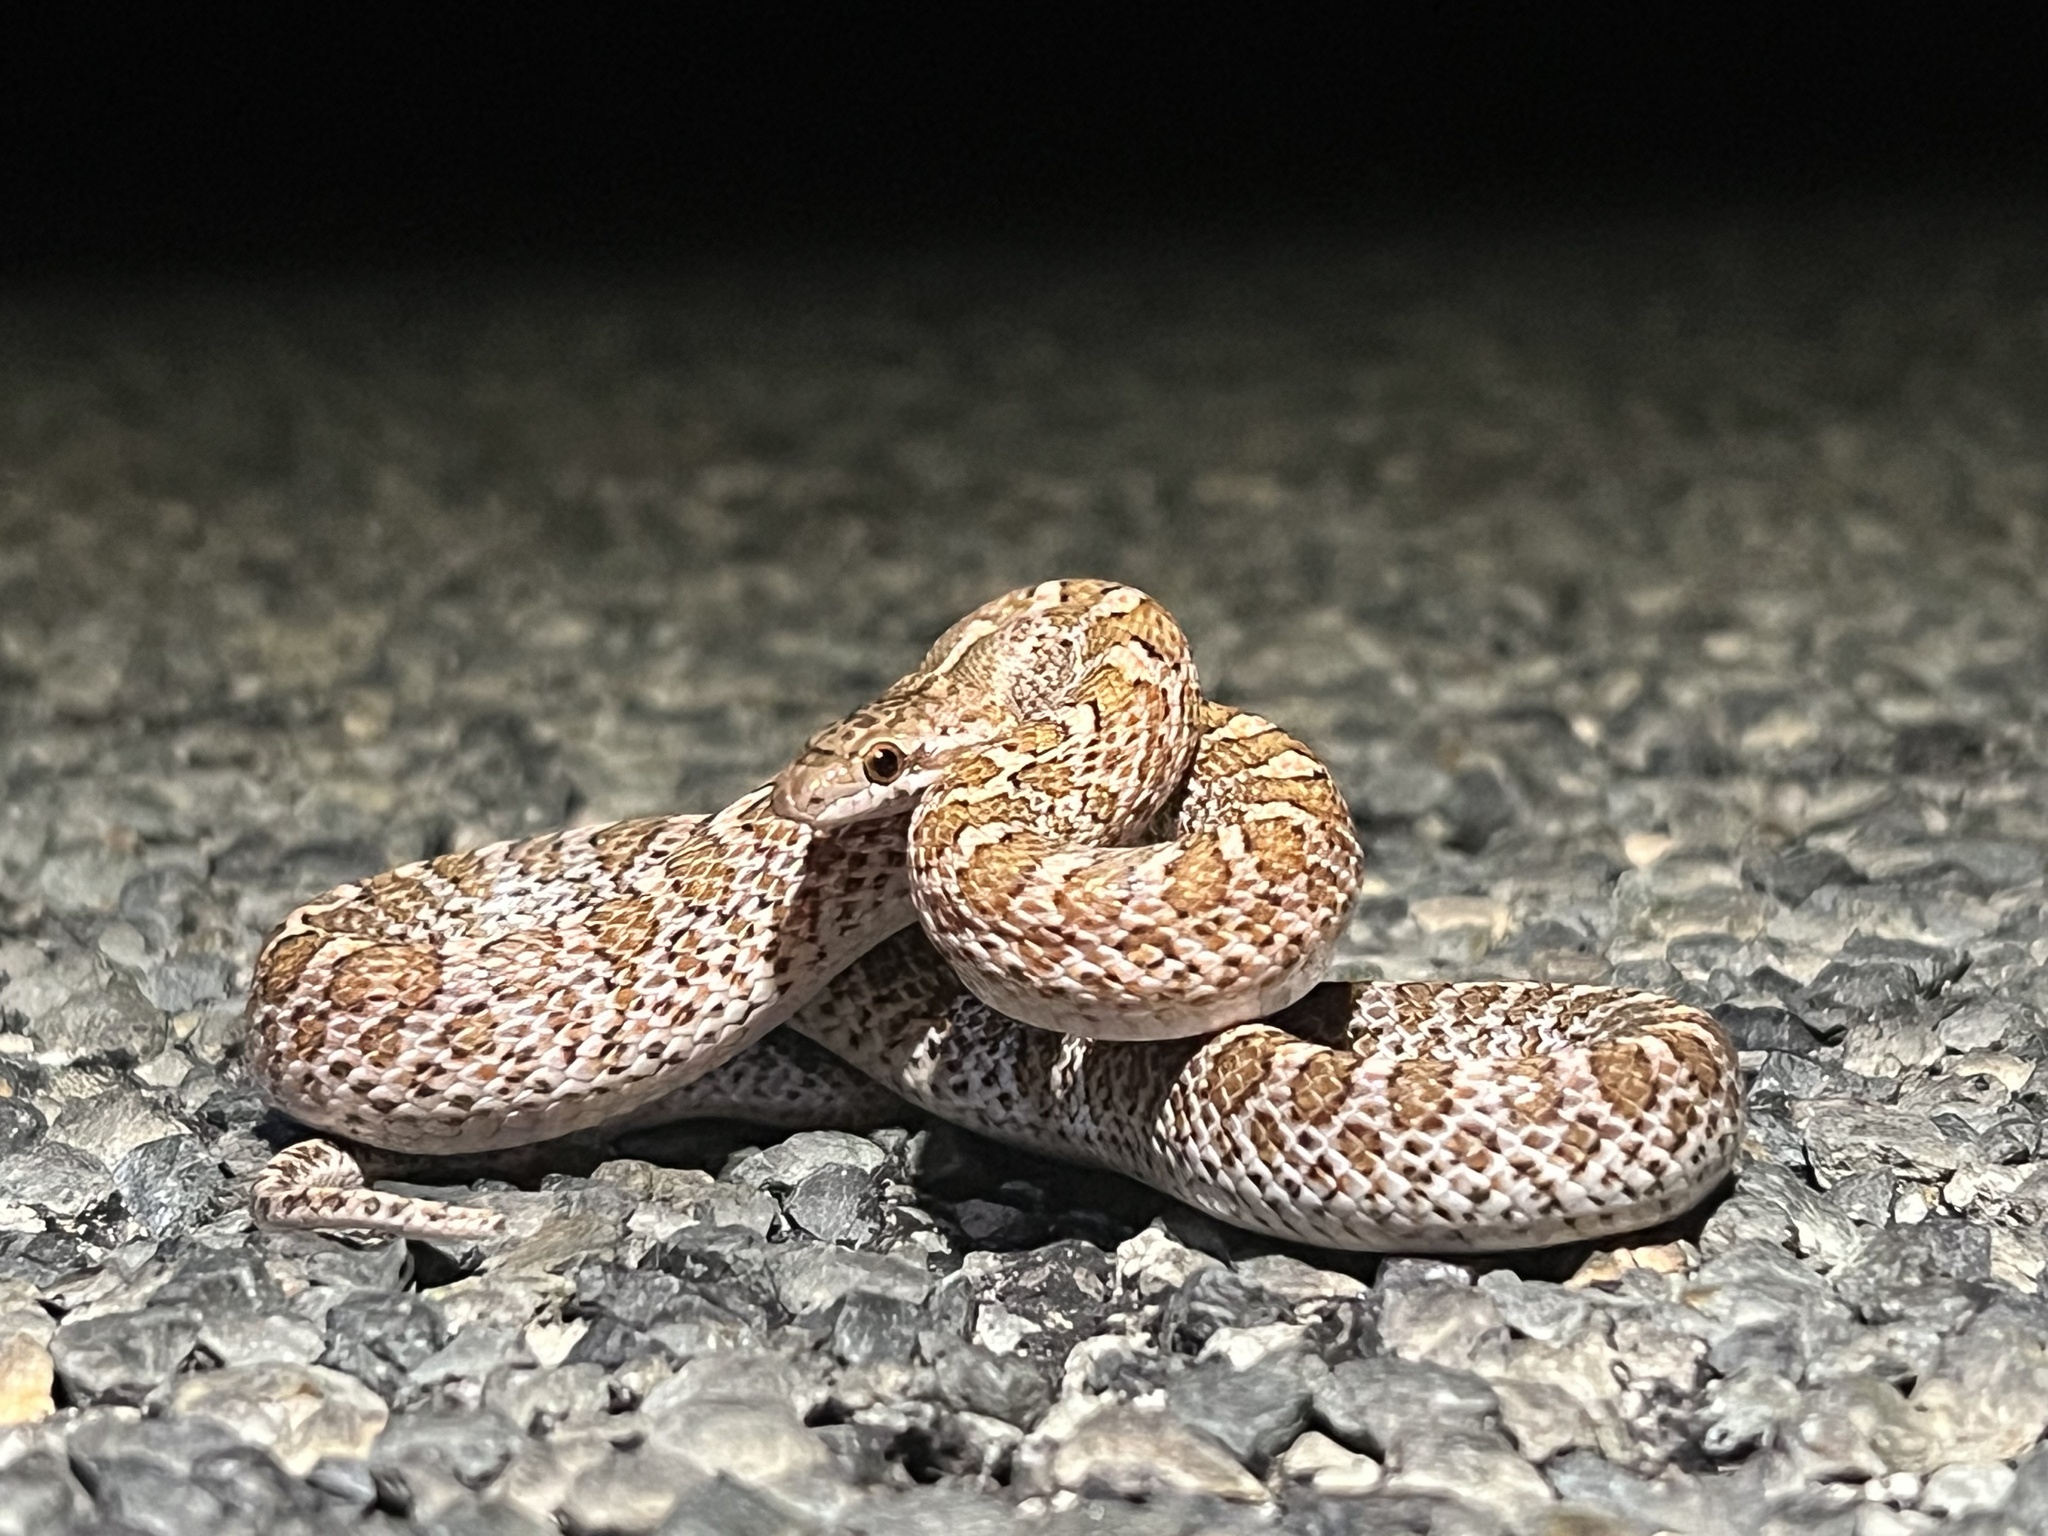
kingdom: Animalia
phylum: Chordata
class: Squamata
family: Colubridae
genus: Arizona
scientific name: Arizona elegans
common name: Glossy snake
